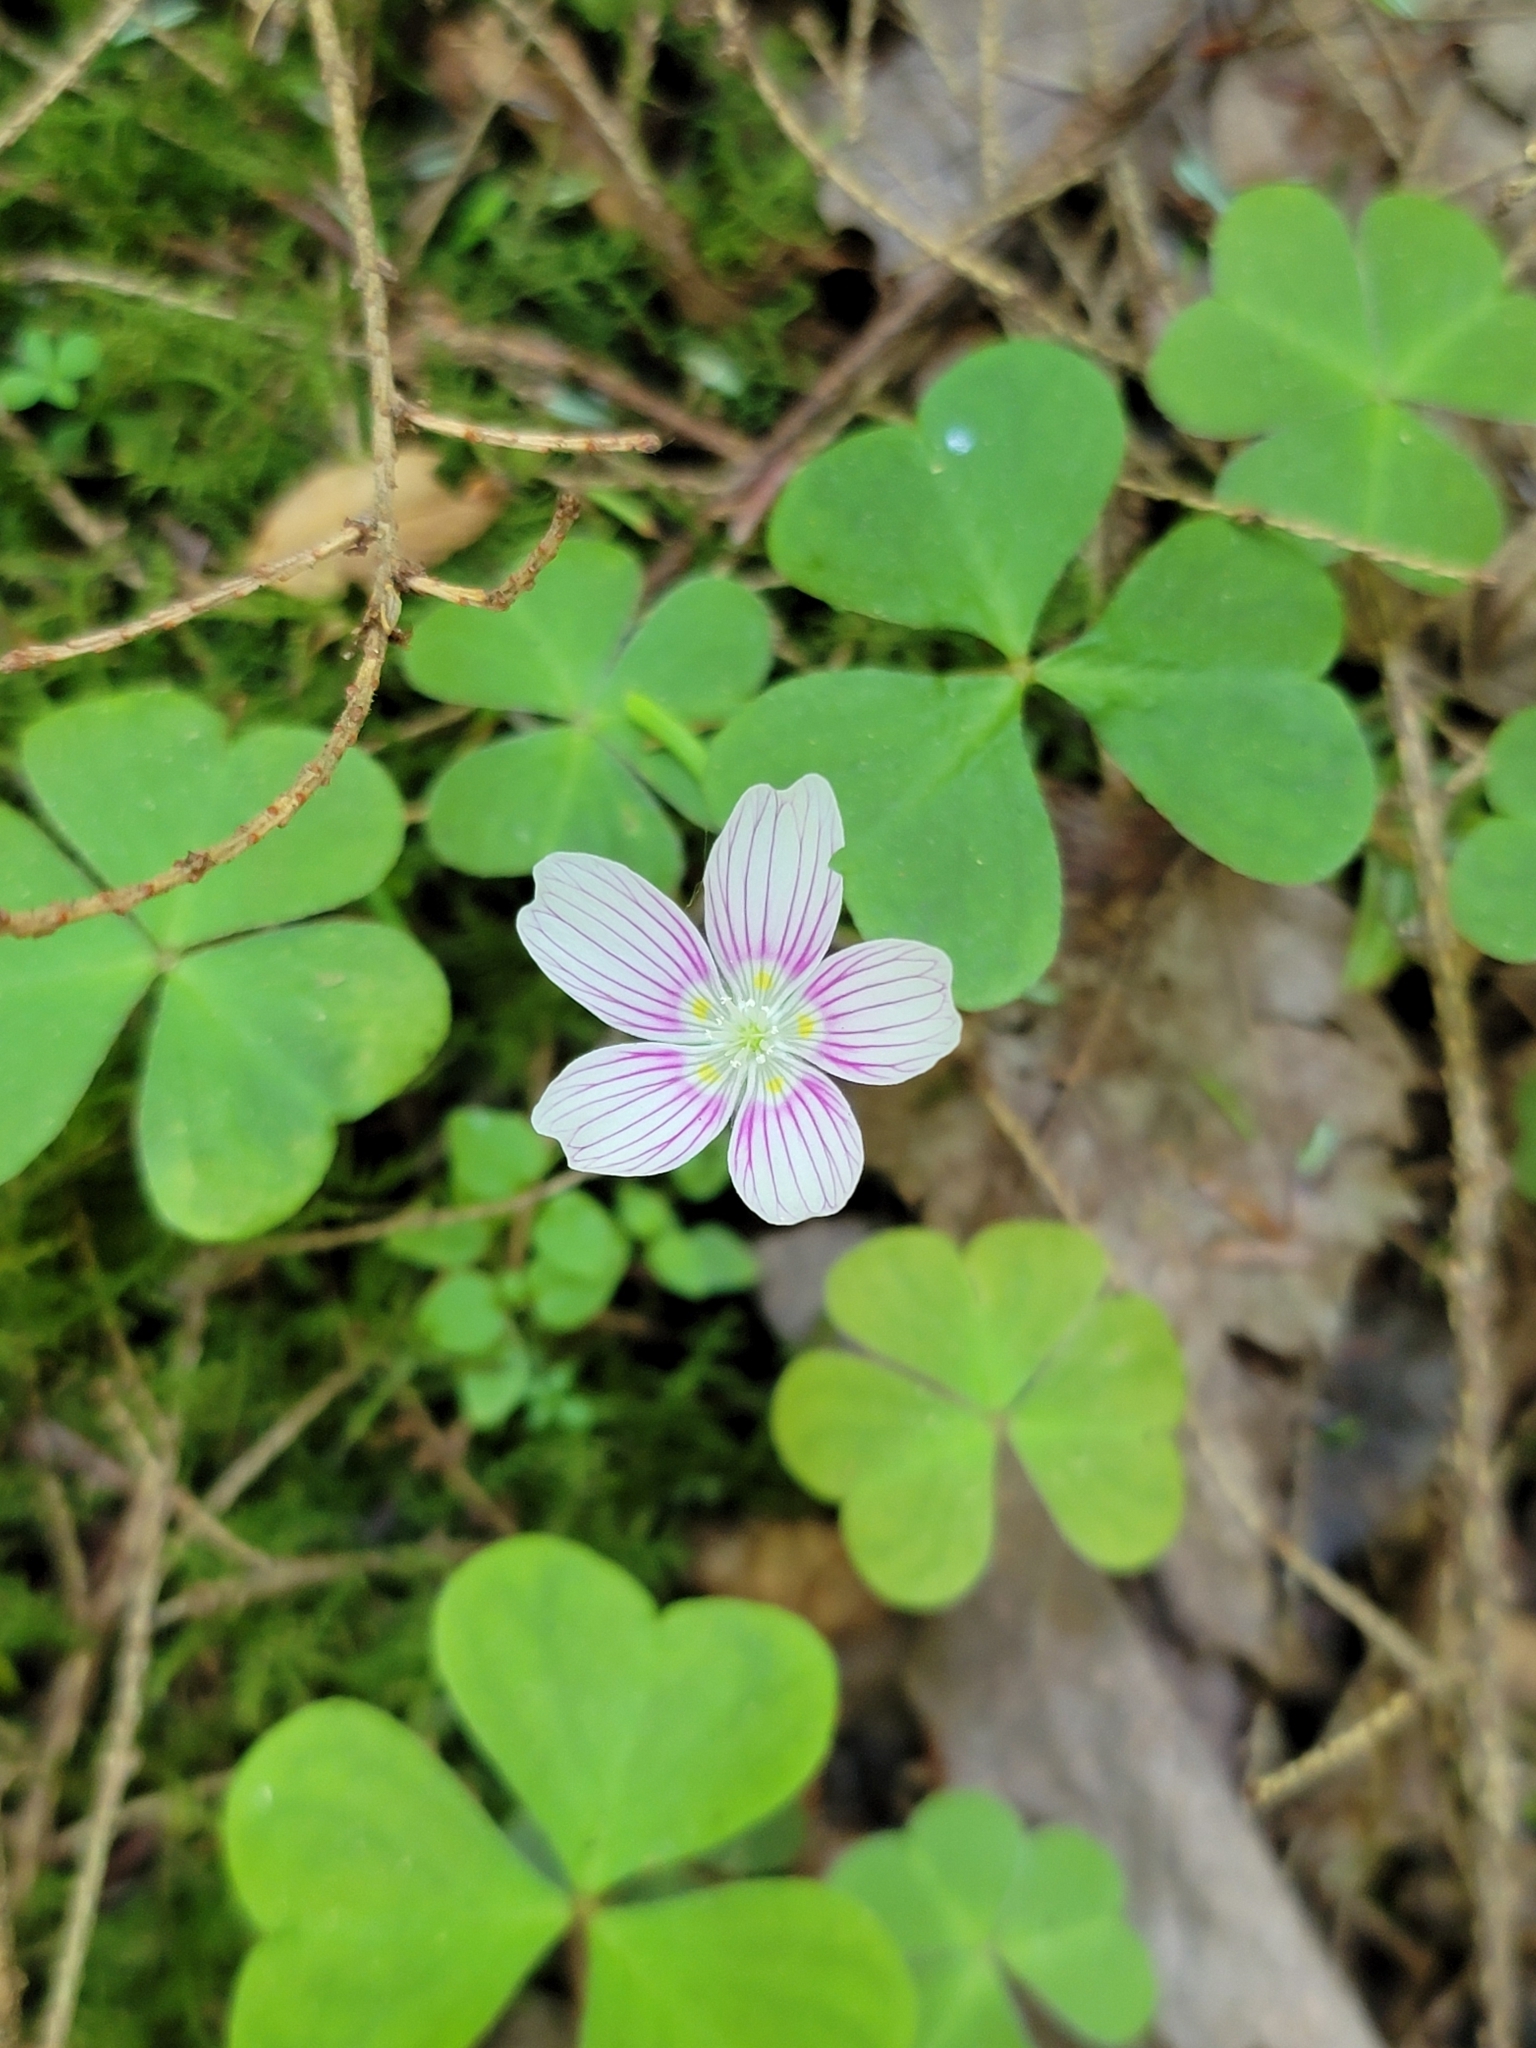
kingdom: Plantae
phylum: Tracheophyta
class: Magnoliopsida
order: Oxalidales
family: Oxalidaceae
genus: Oxalis
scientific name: Oxalis montana
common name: American wood-sorrel
